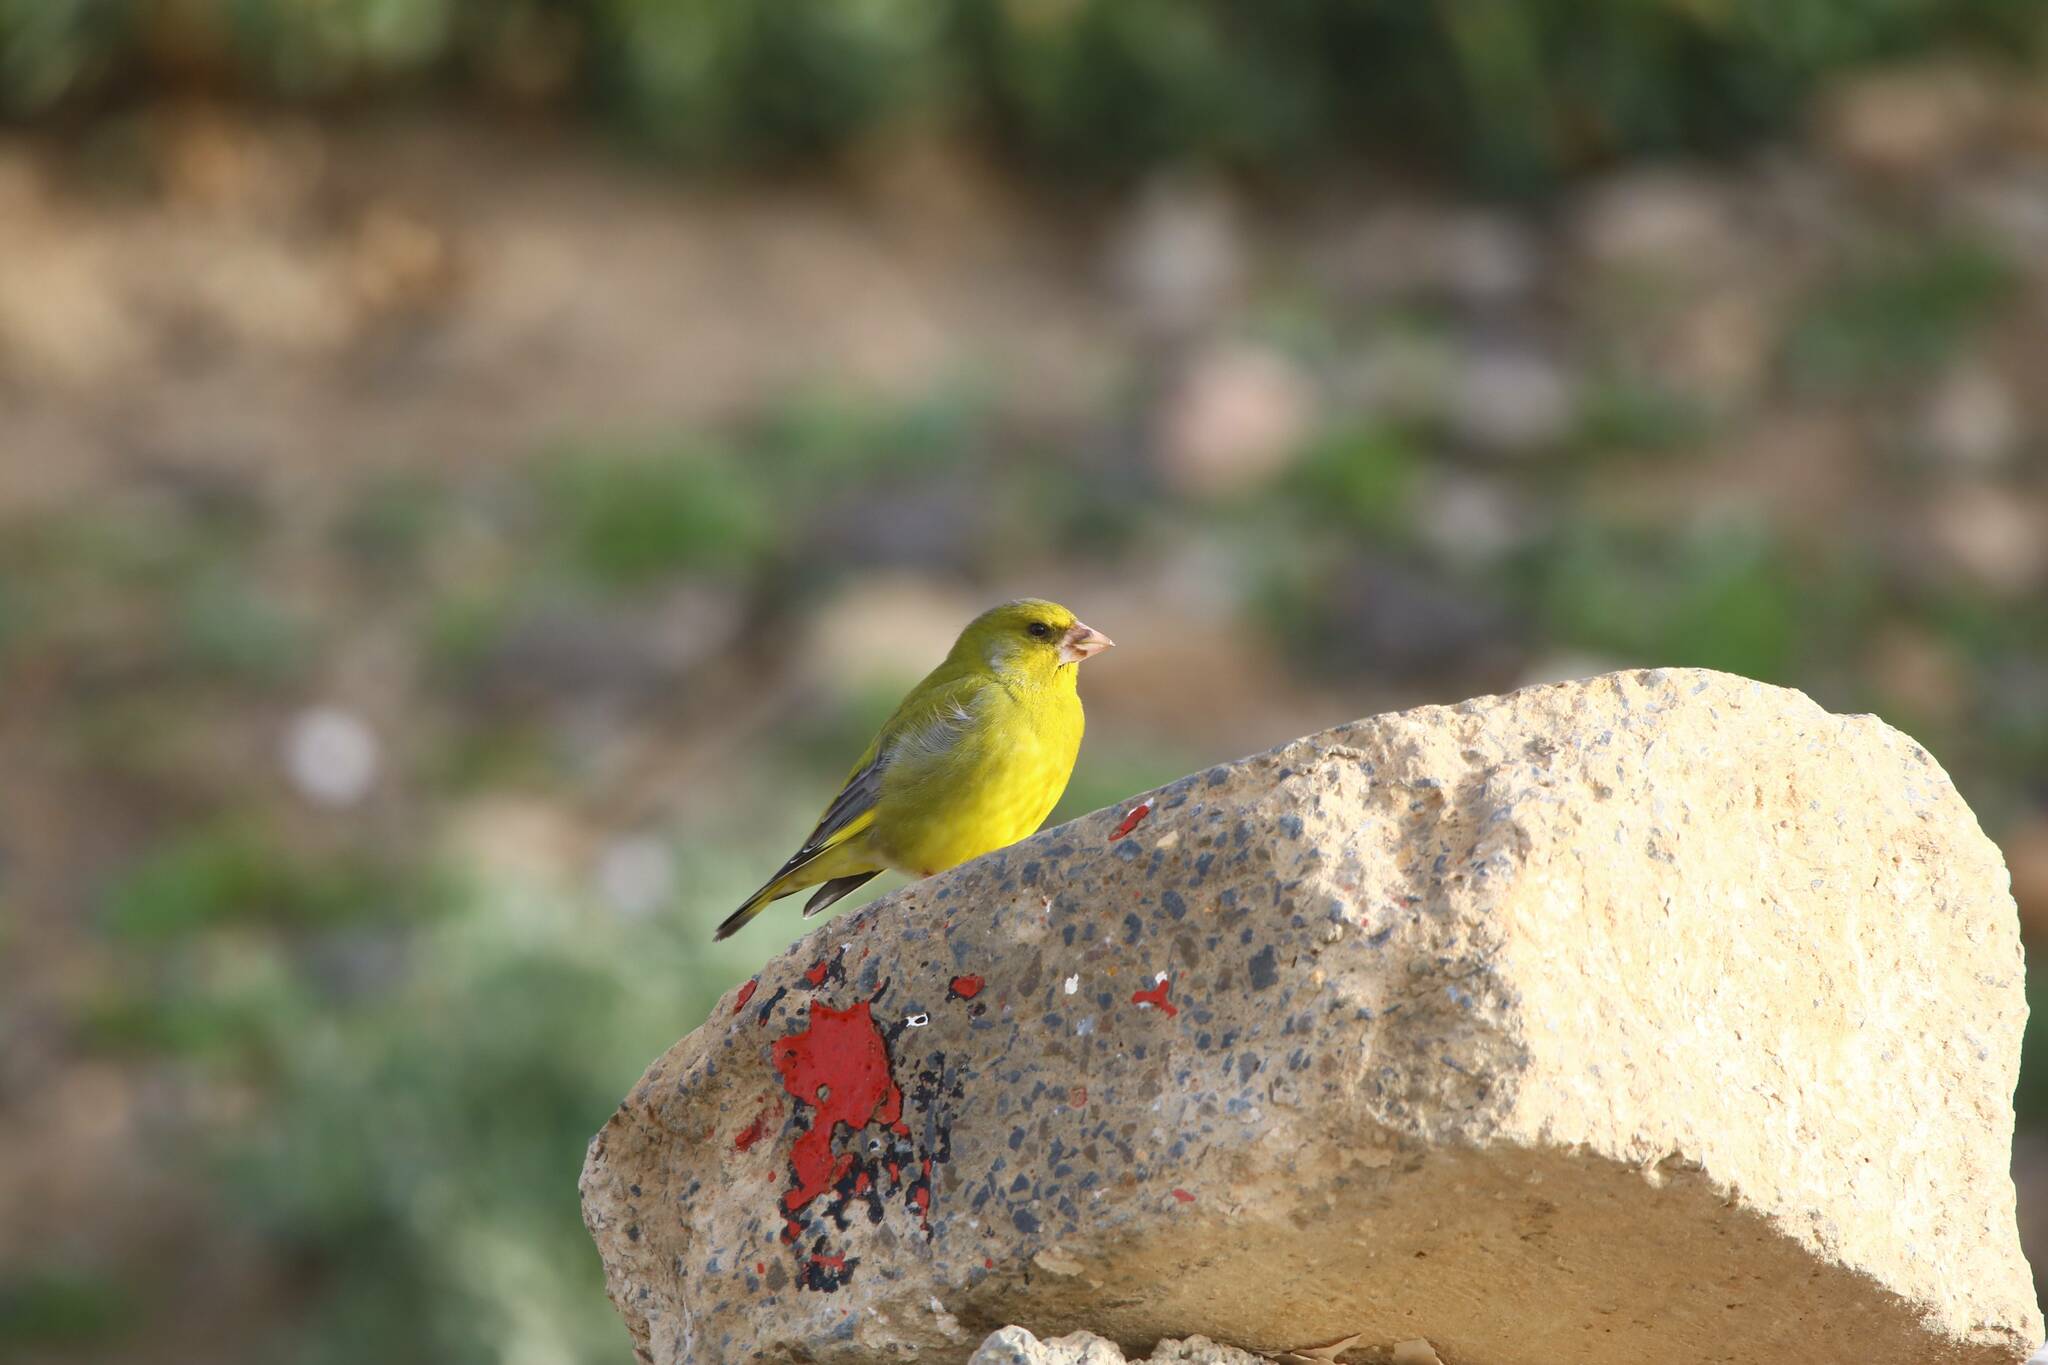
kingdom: Plantae
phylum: Tracheophyta
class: Liliopsida
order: Poales
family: Poaceae
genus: Chloris
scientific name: Chloris chloris
